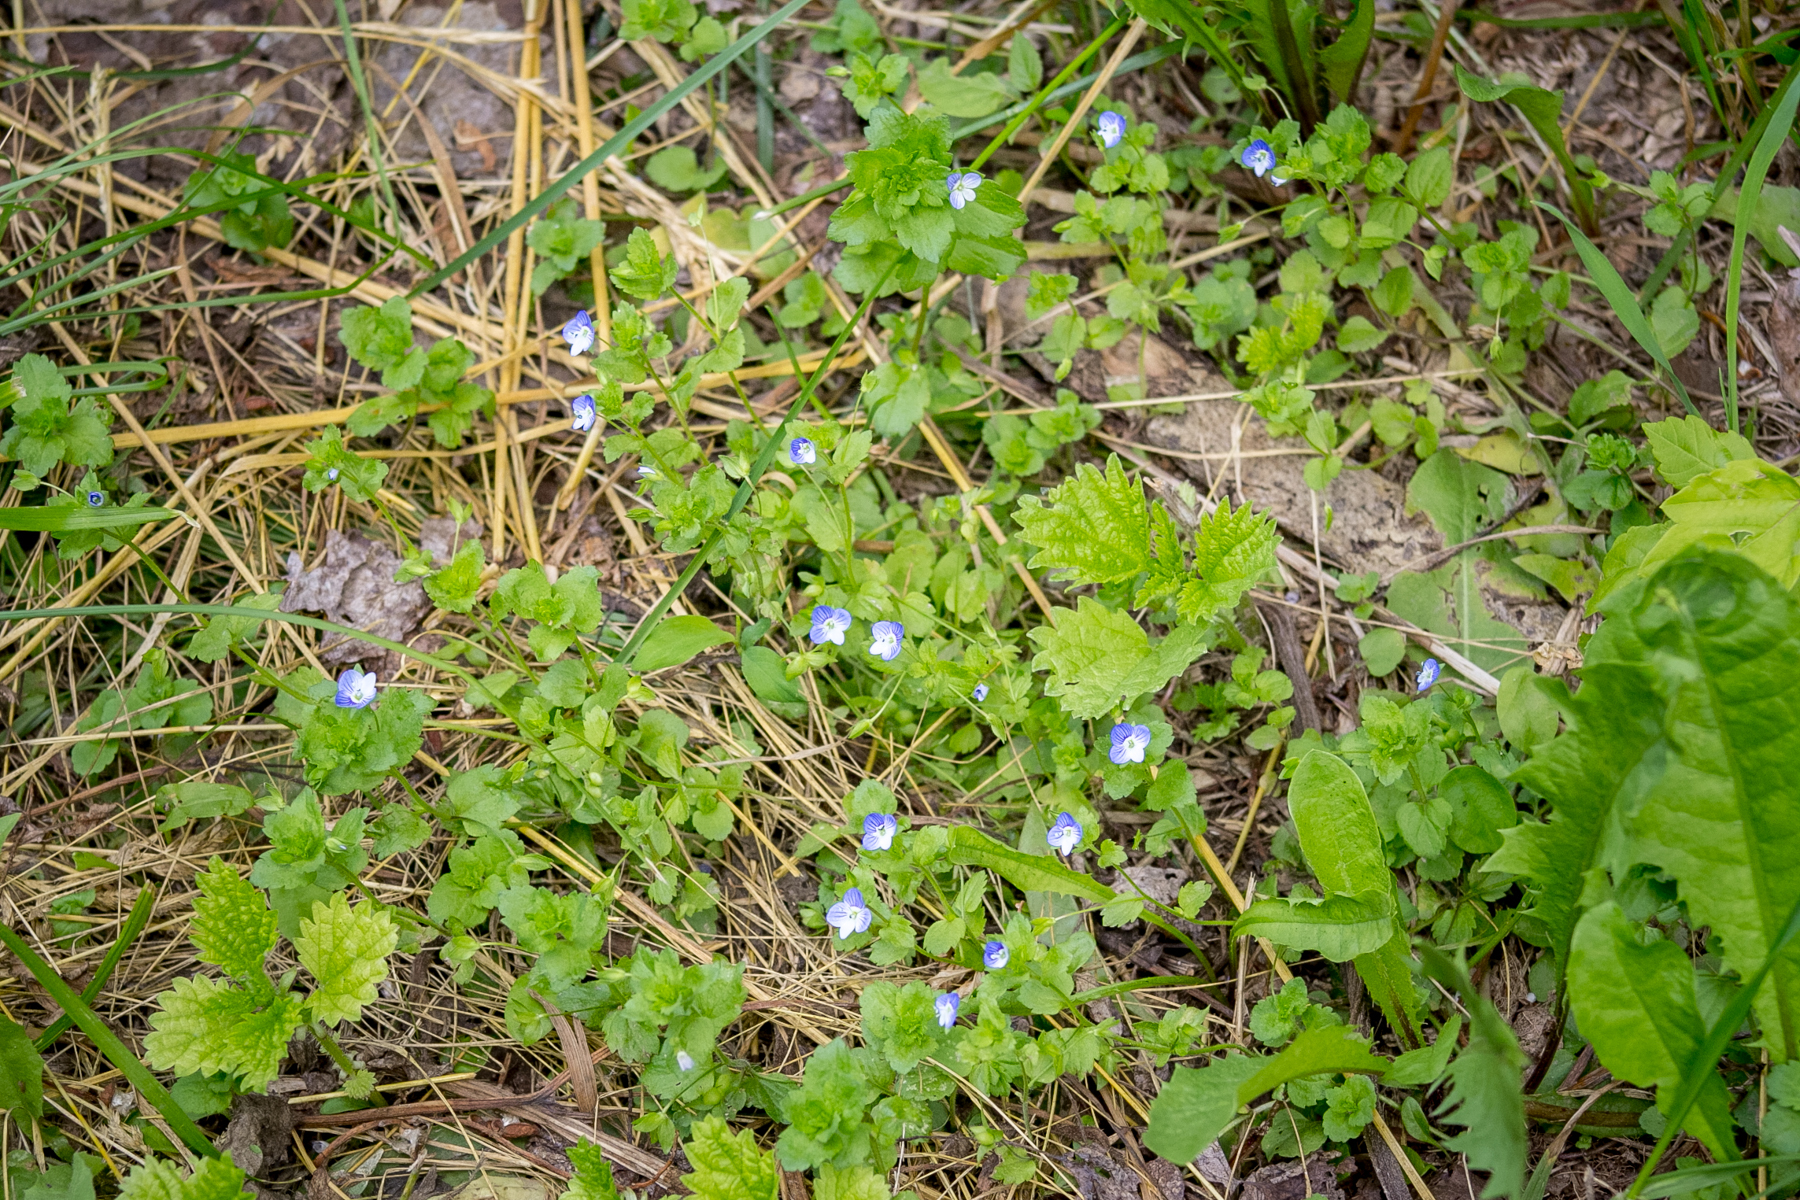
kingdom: Plantae
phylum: Tracheophyta
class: Magnoliopsida
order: Lamiales
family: Plantaginaceae
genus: Veronica
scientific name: Veronica persica
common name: Common field-speedwell
